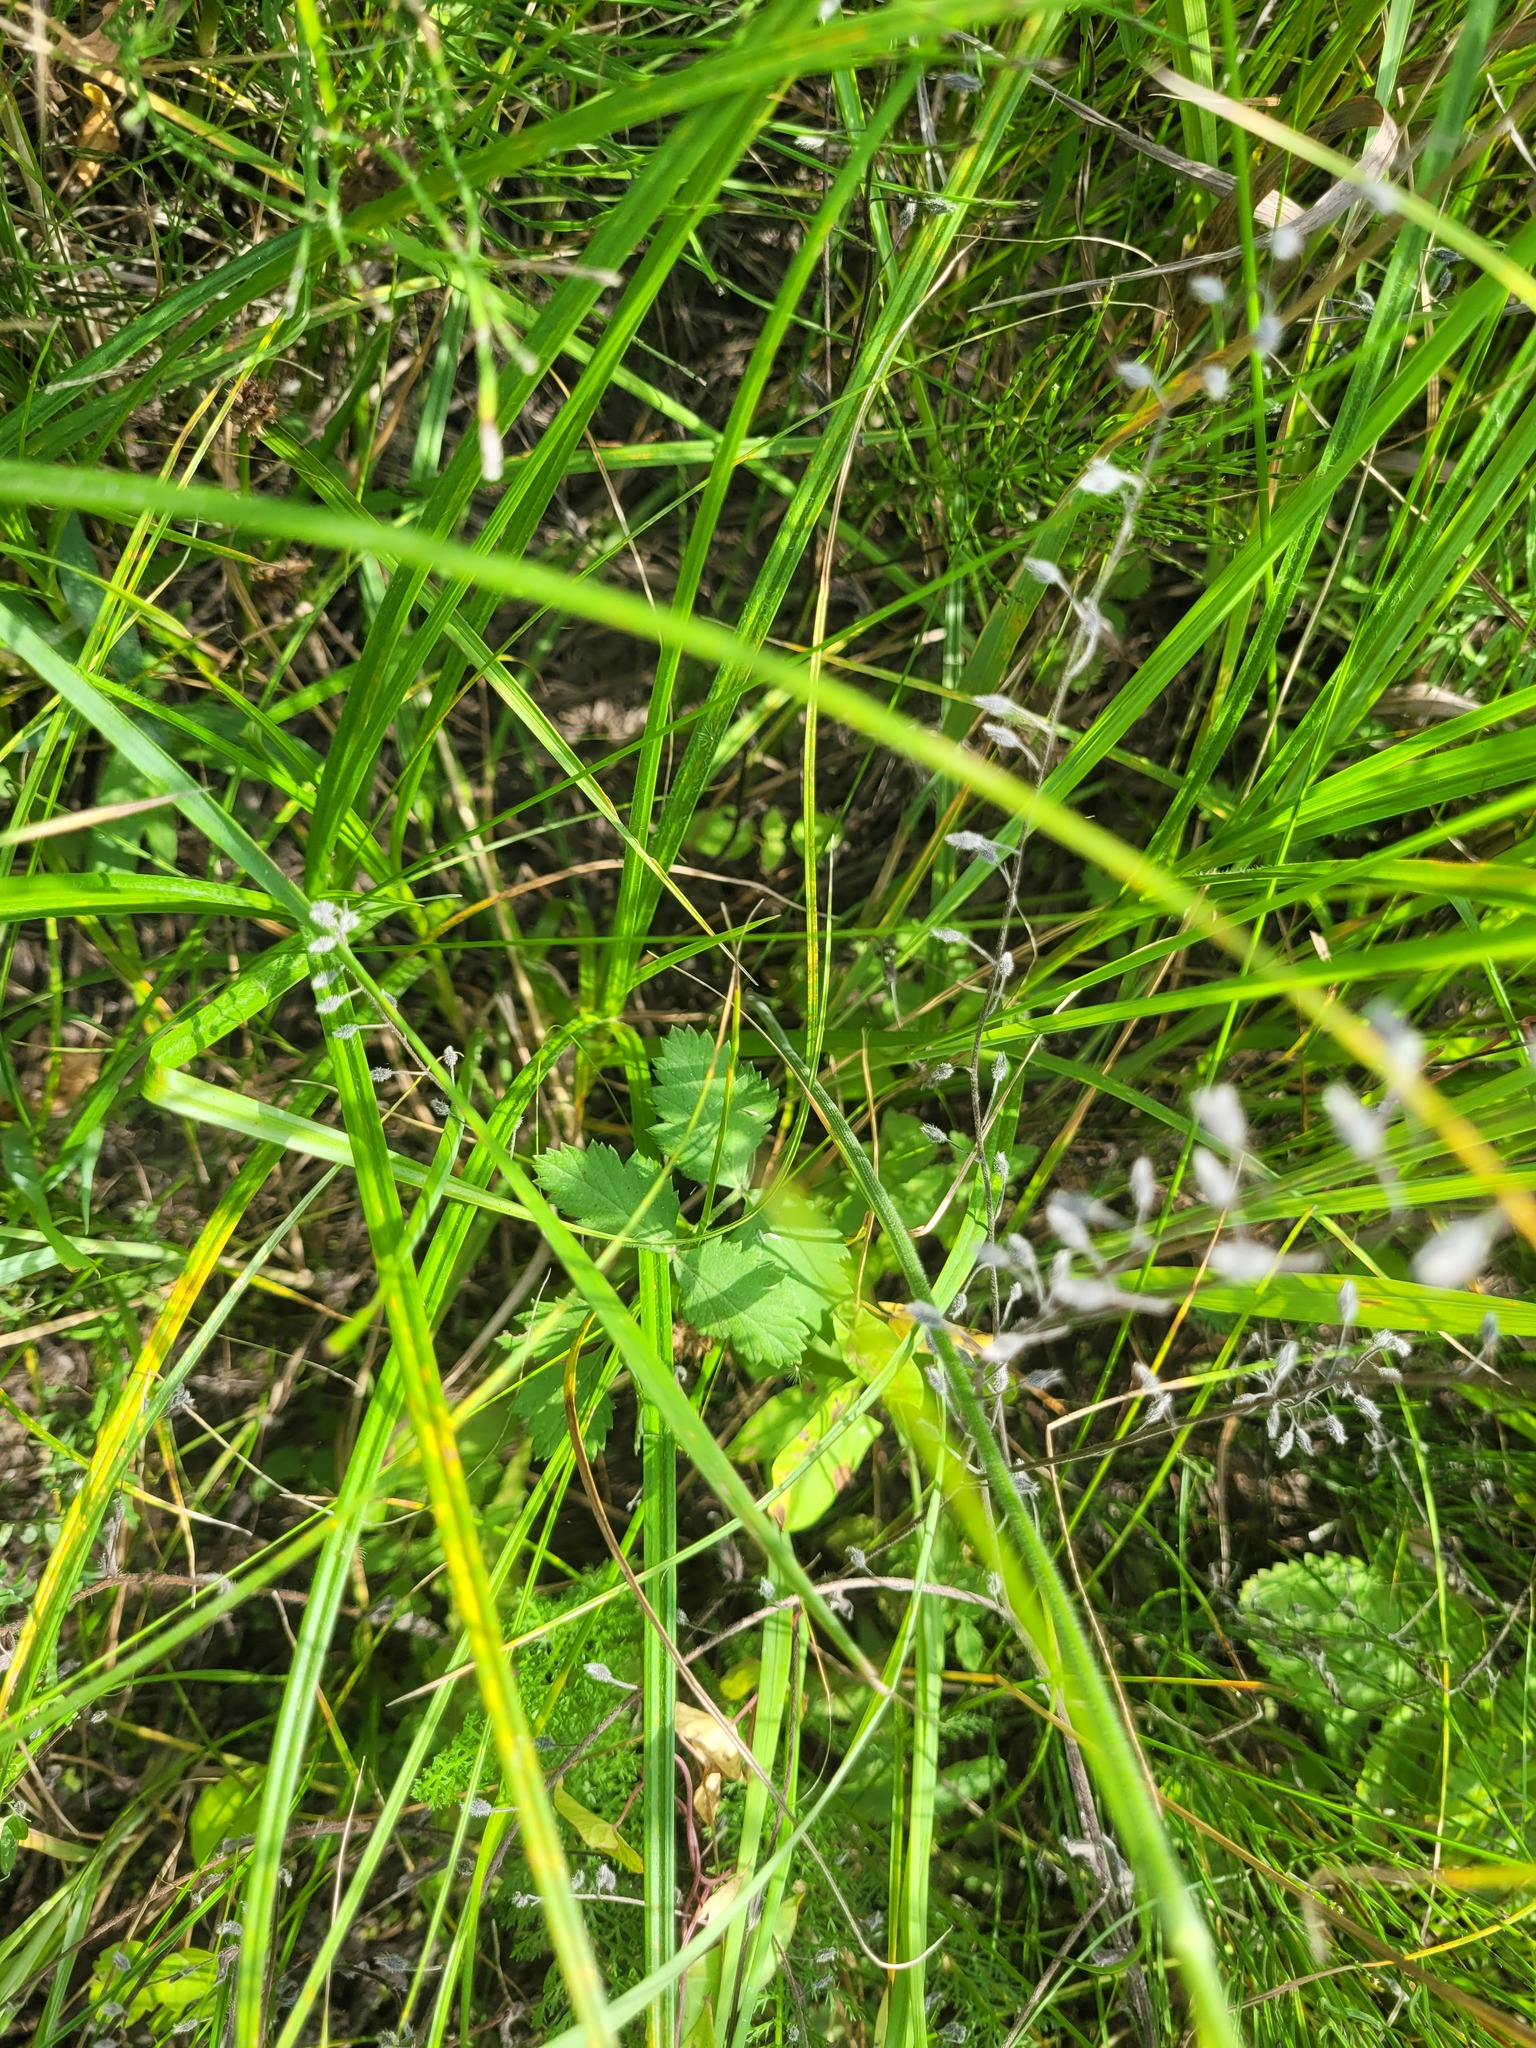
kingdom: Plantae
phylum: Tracheophyta
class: Magnoliopsida
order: Apiales
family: Apiaceae
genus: Pimpinella
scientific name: Pimpinella saxifraga
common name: Burnet-saxifrage
